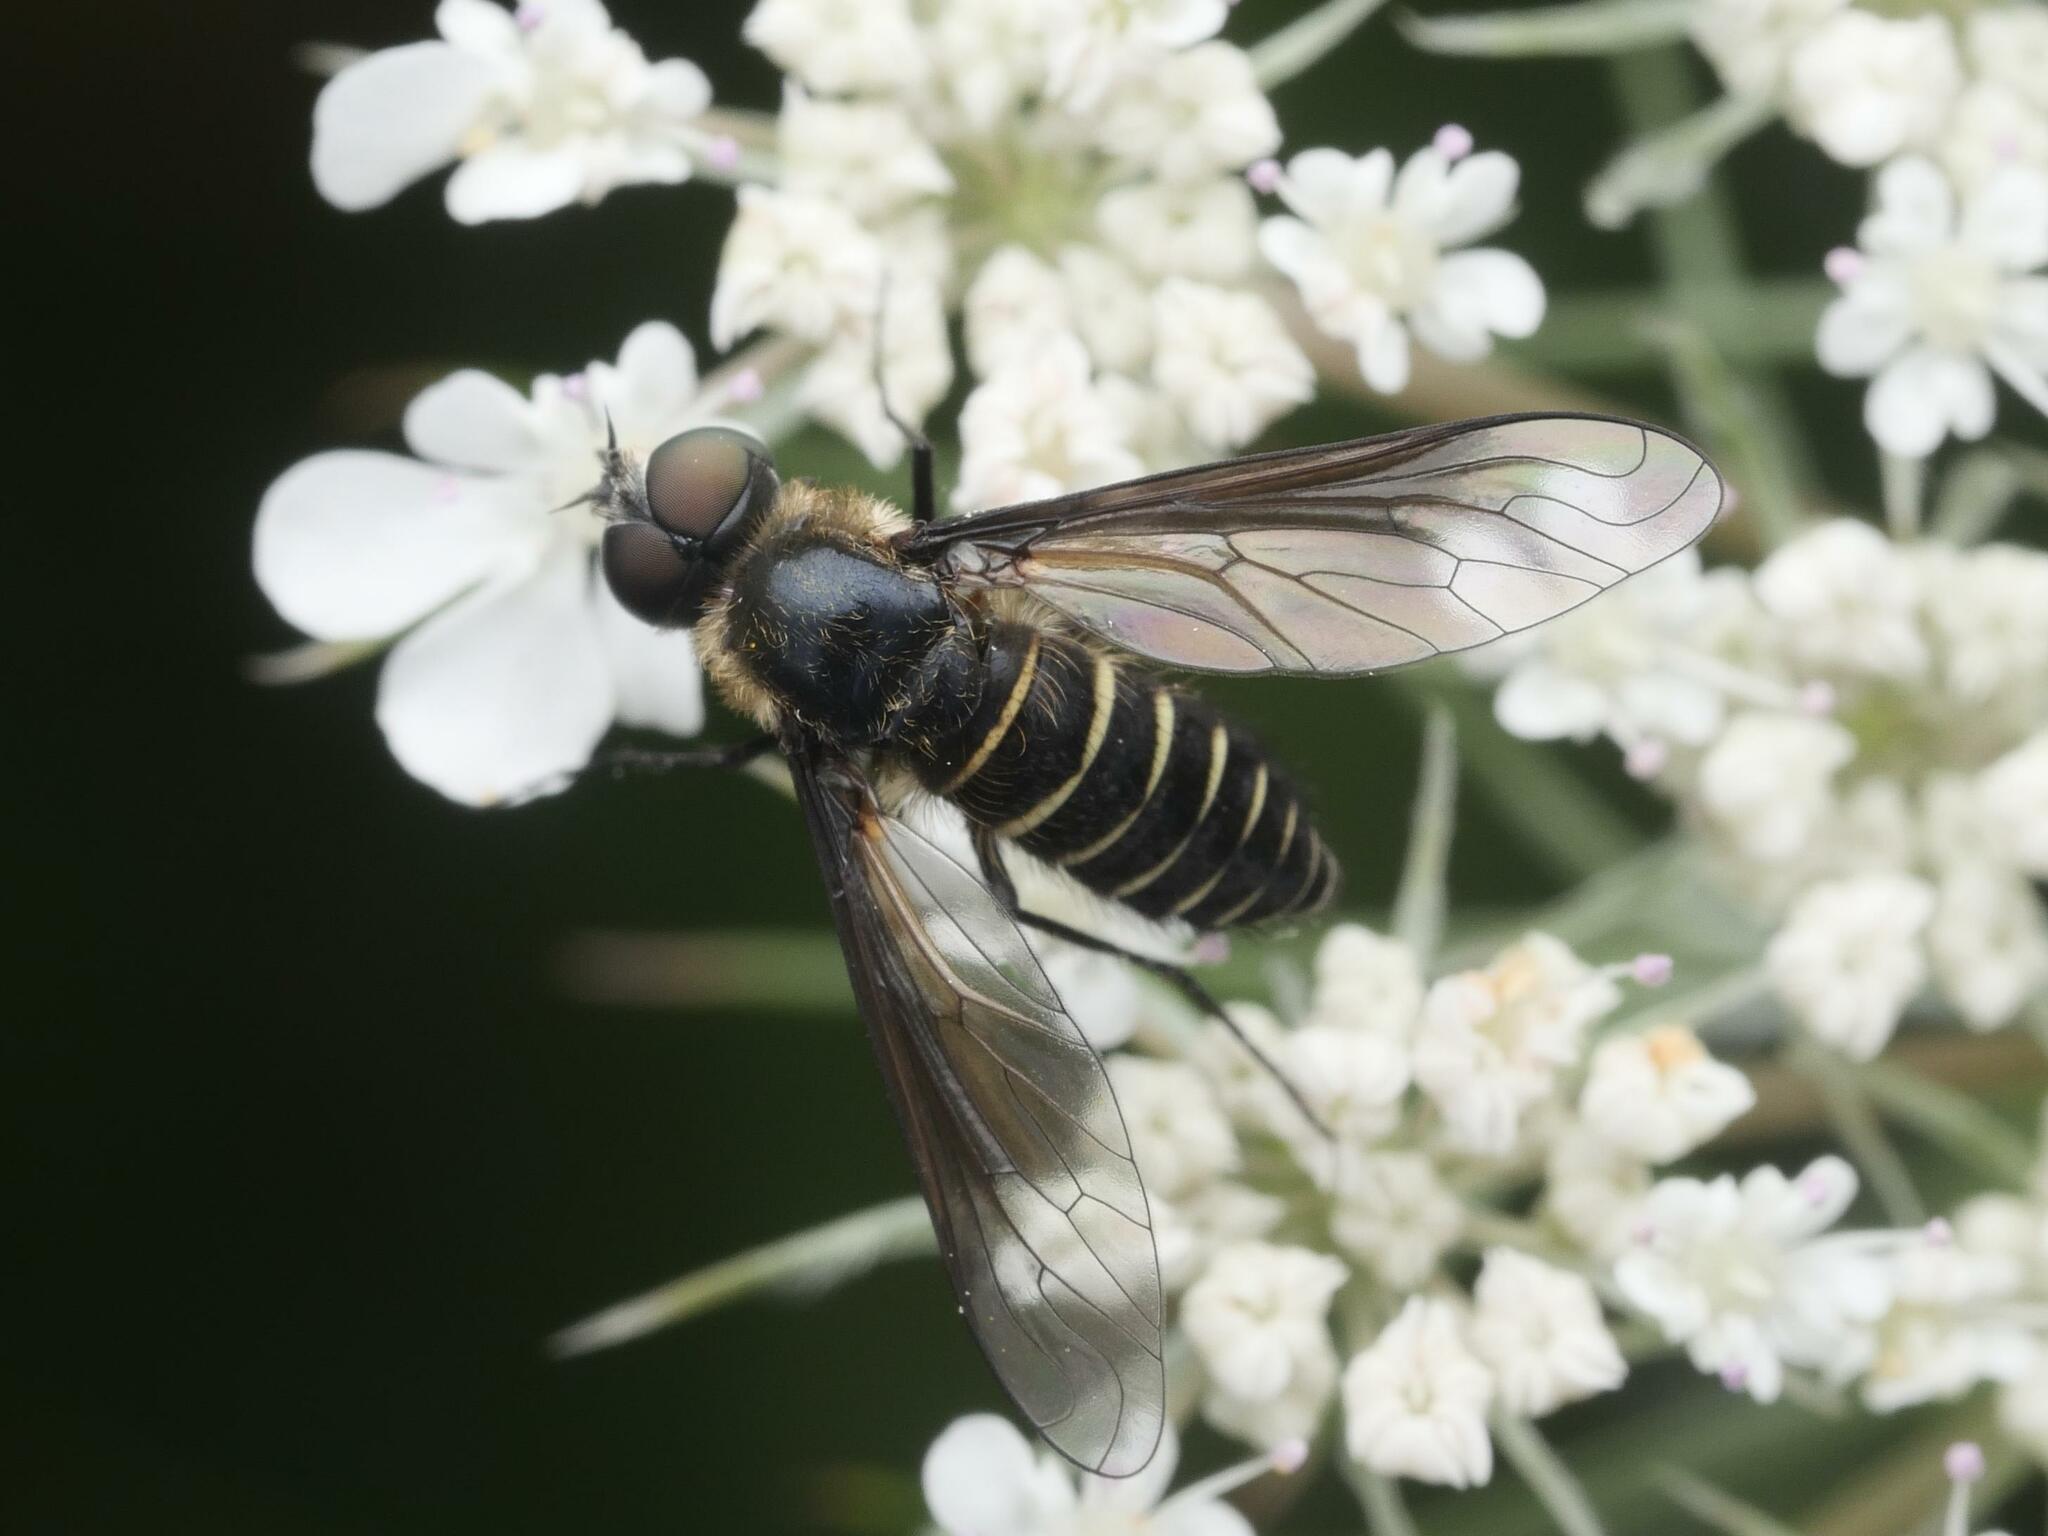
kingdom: Animalia
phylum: Arthropoda
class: Insecta
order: Diptera
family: Bombyliidae
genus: Lomatia
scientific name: Lomatia lateralis
